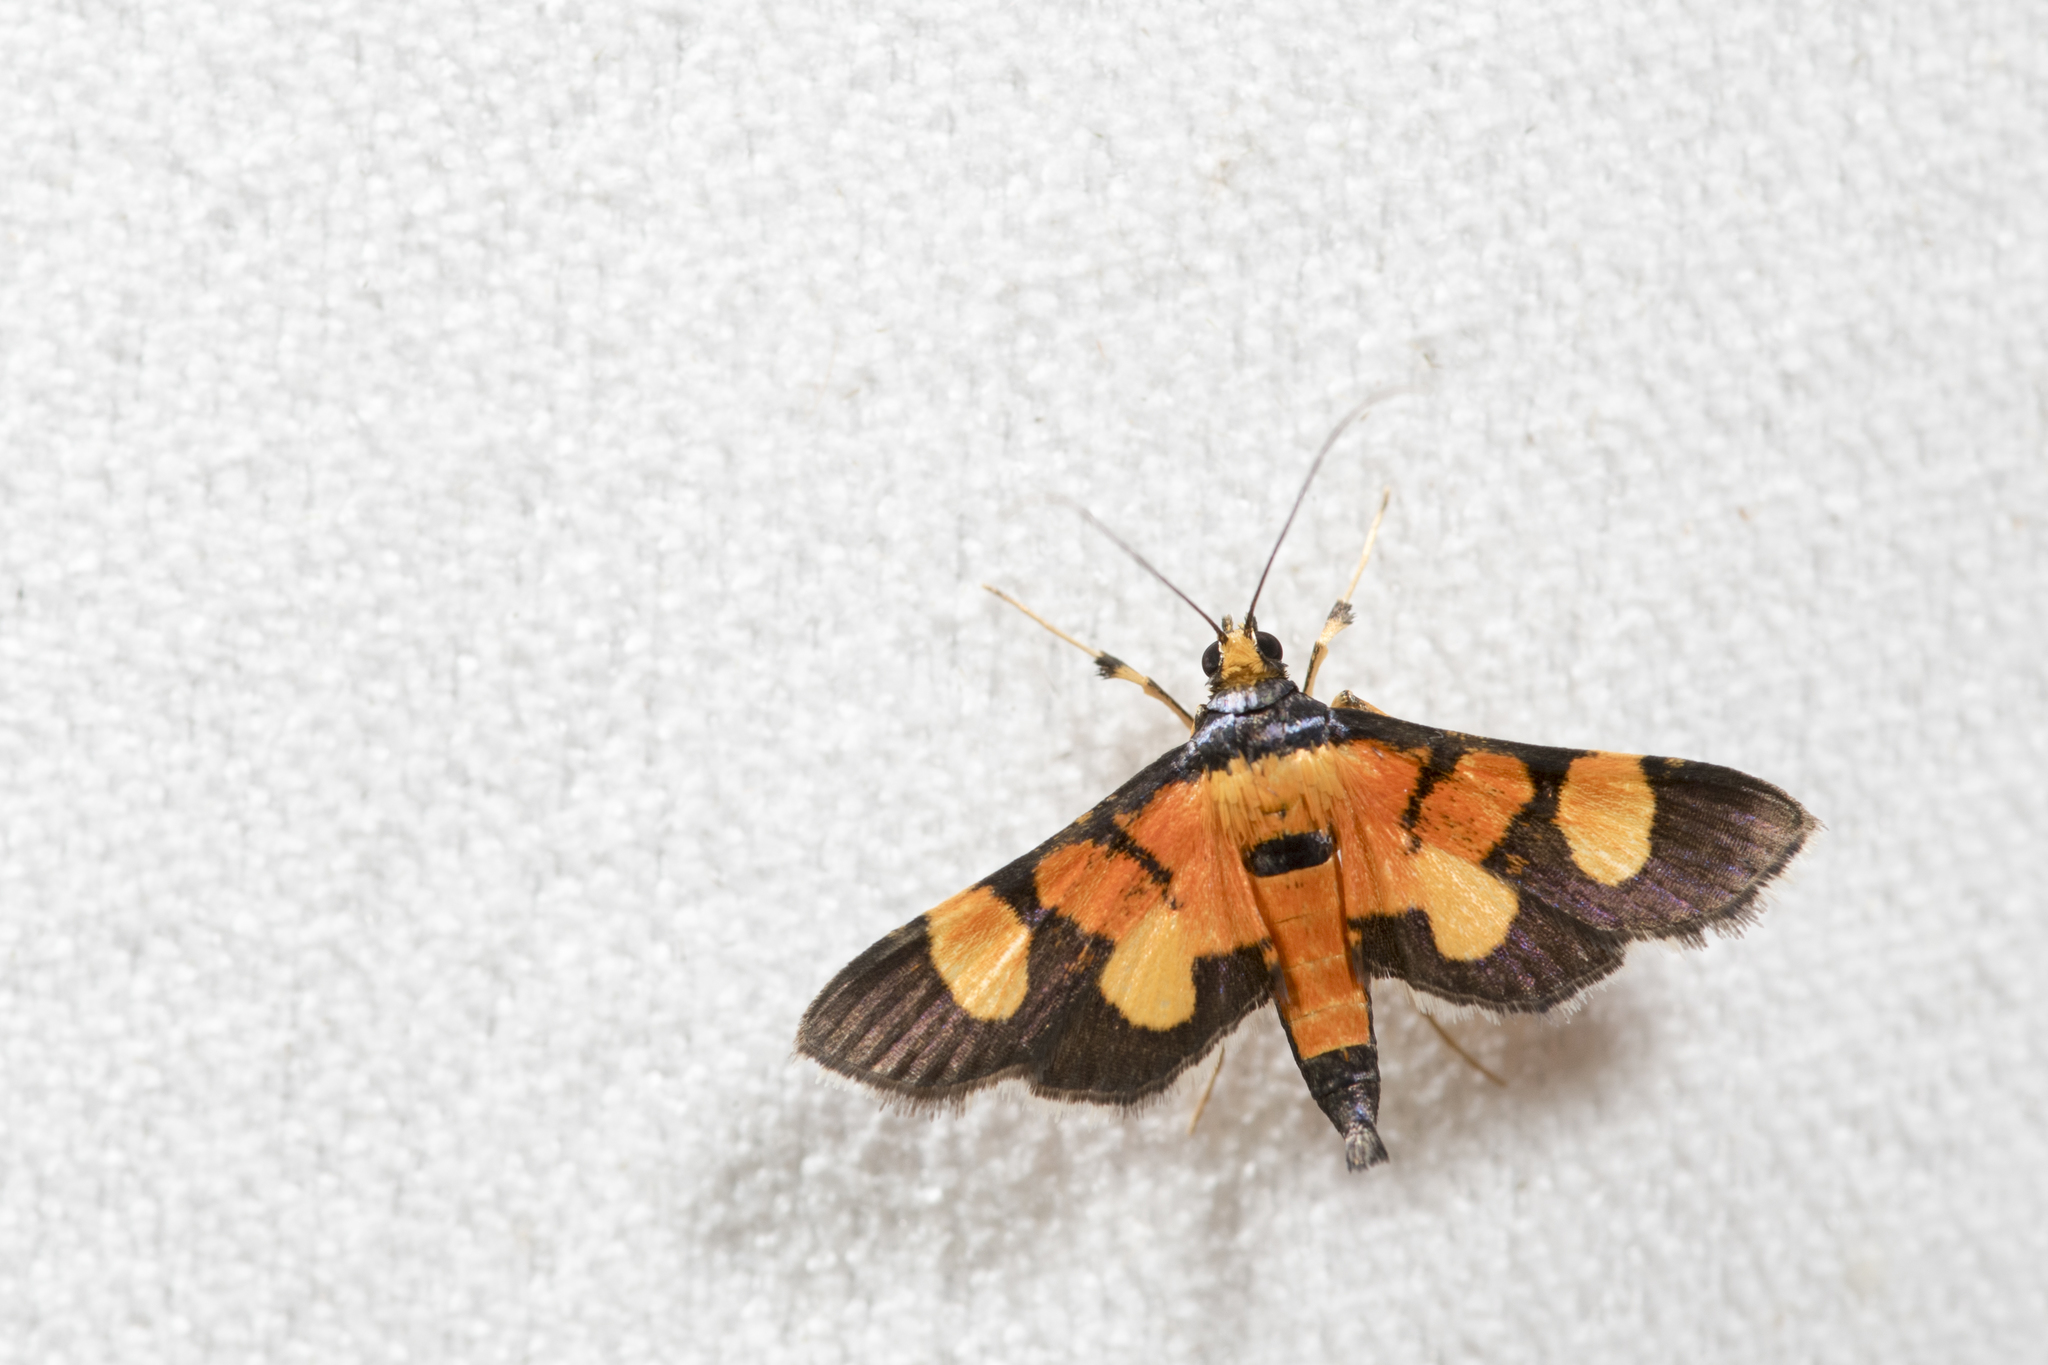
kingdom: Animalia
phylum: Arthropoda
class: Insecta
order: Lepidoptera
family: Crambidae
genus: Aethaloessa
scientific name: Aethaloessa calidalis
